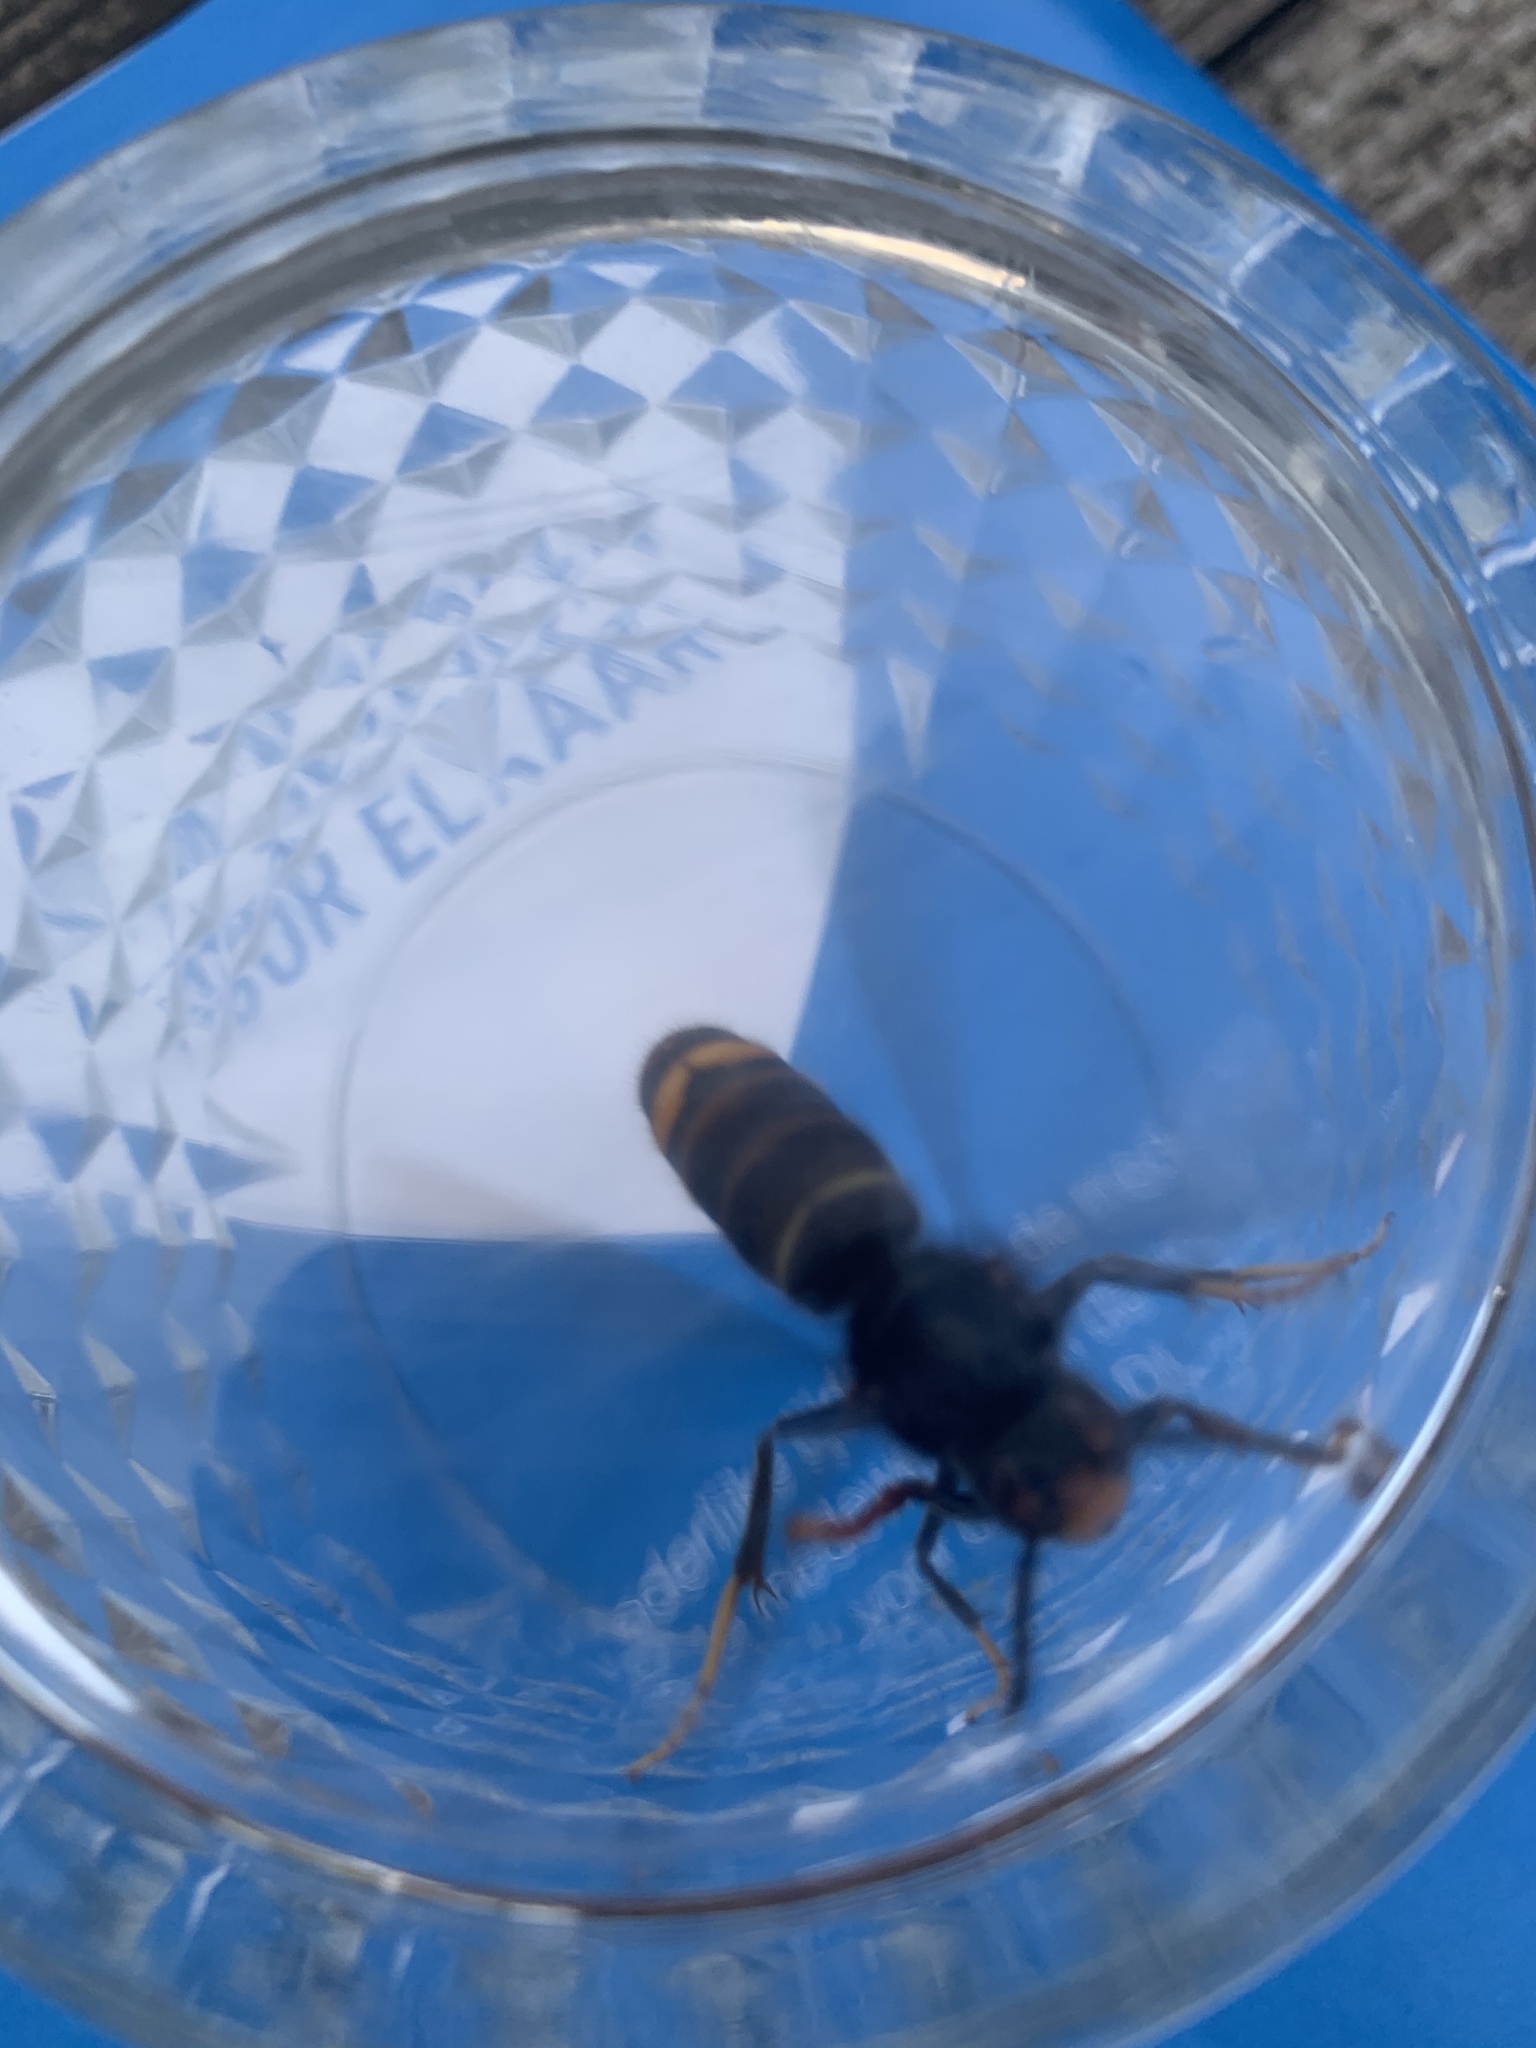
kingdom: Animalia
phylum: Arthropoda
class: Insecta
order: Hymenoptera
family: Vespidae
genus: Vespa
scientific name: Vespa velutina
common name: Asian hornet
